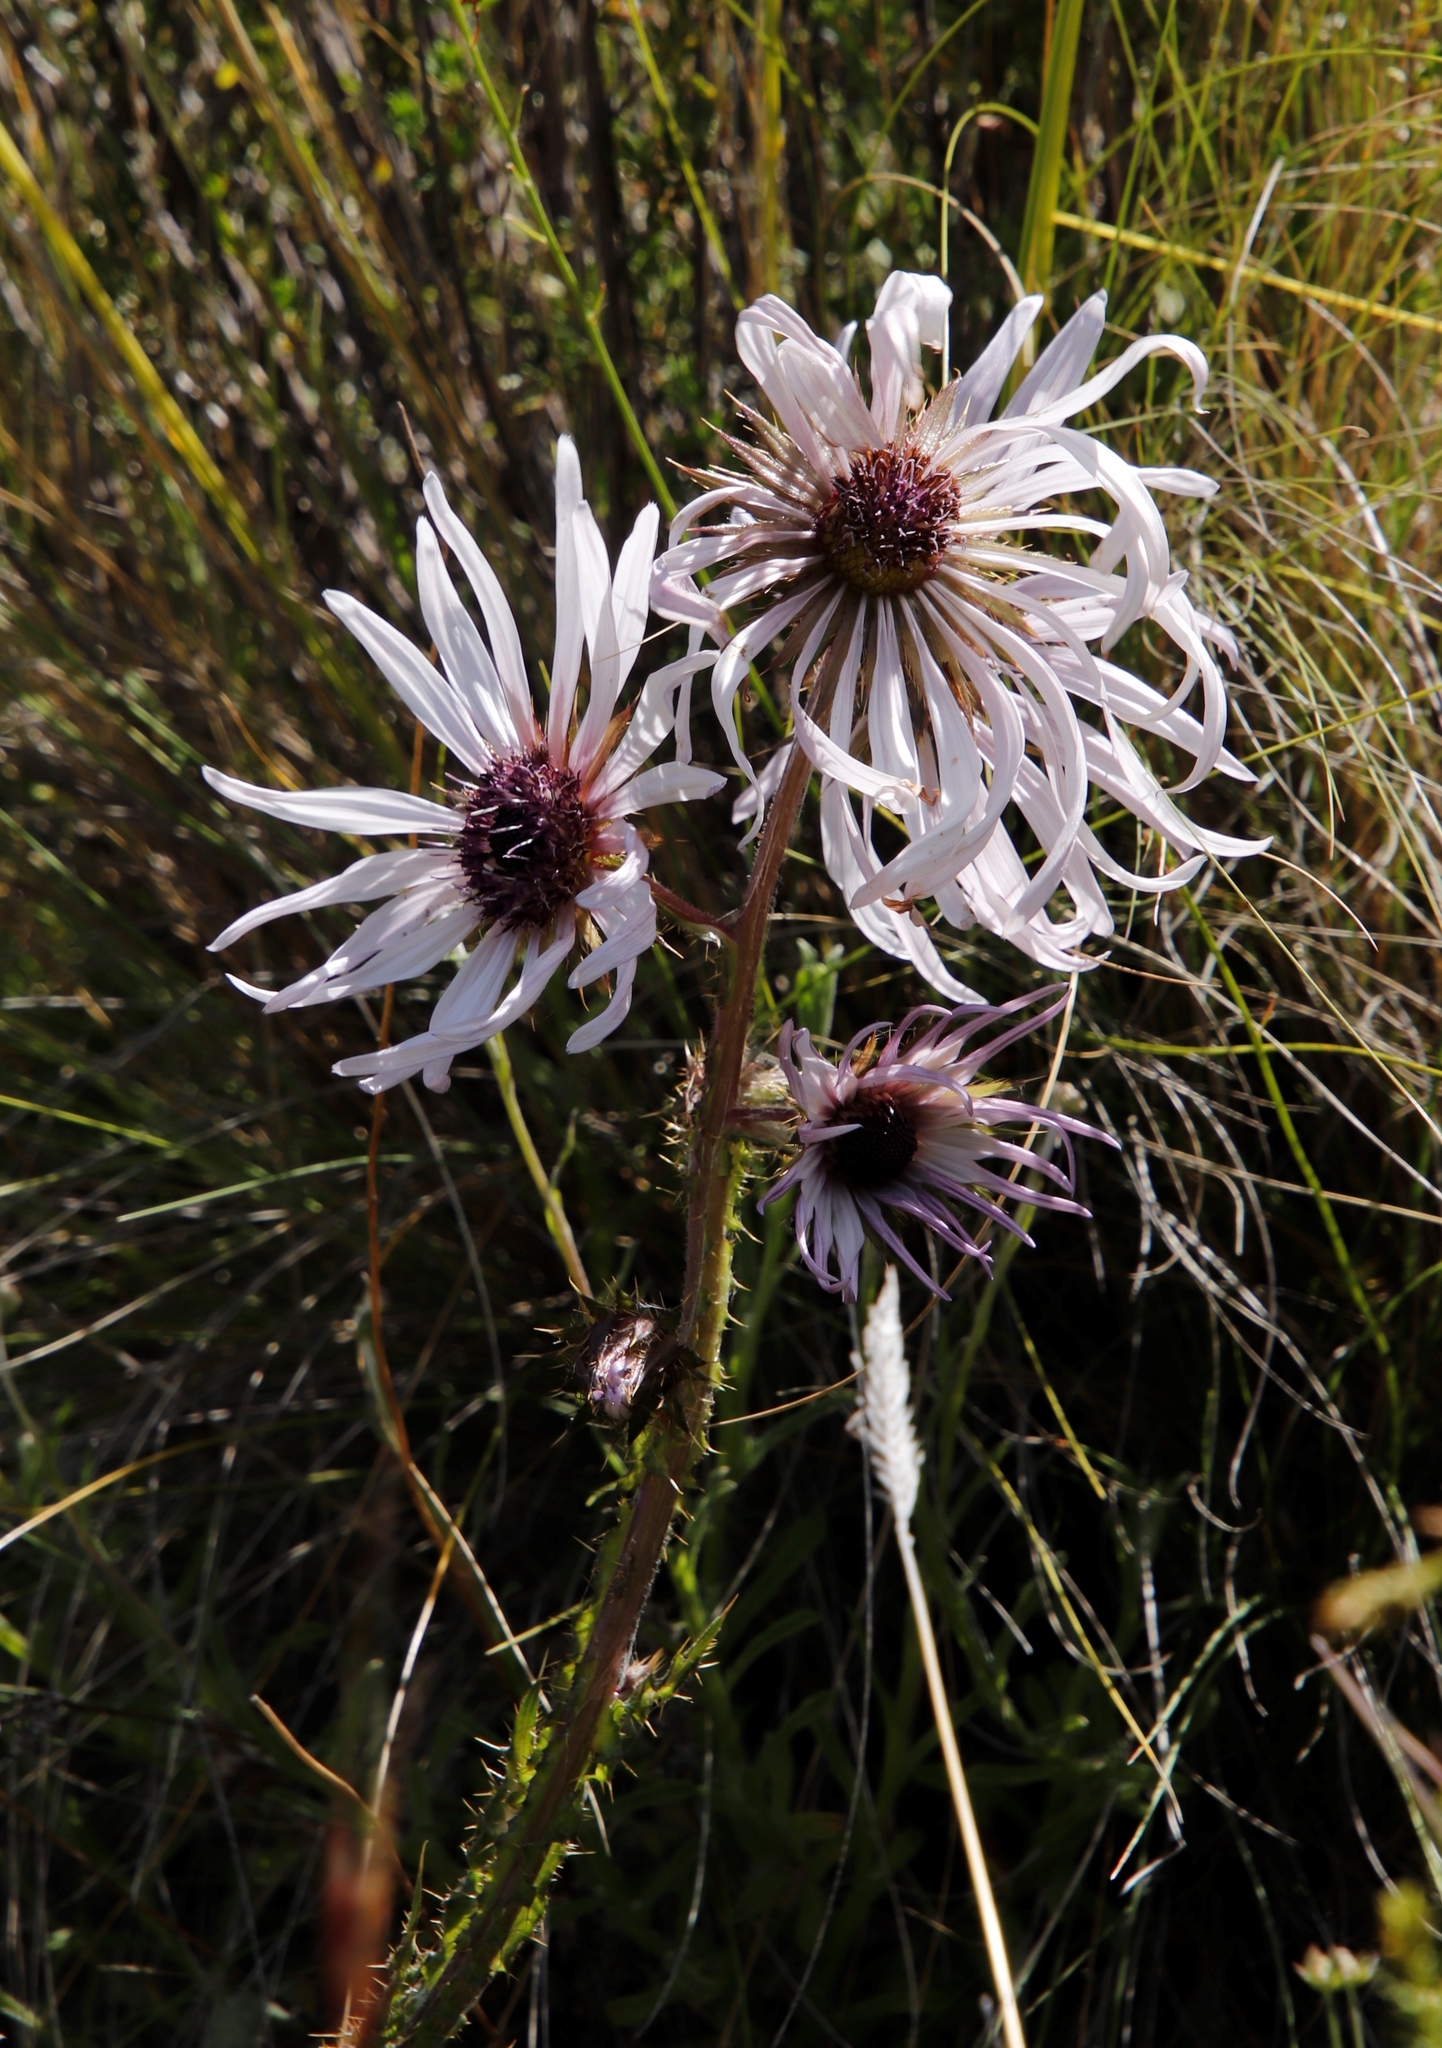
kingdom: Plantae
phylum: Tracheophyta
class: Magnoliopsida
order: Asterales
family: Asteraceae
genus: Berkheya
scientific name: Berkheya purpurea
